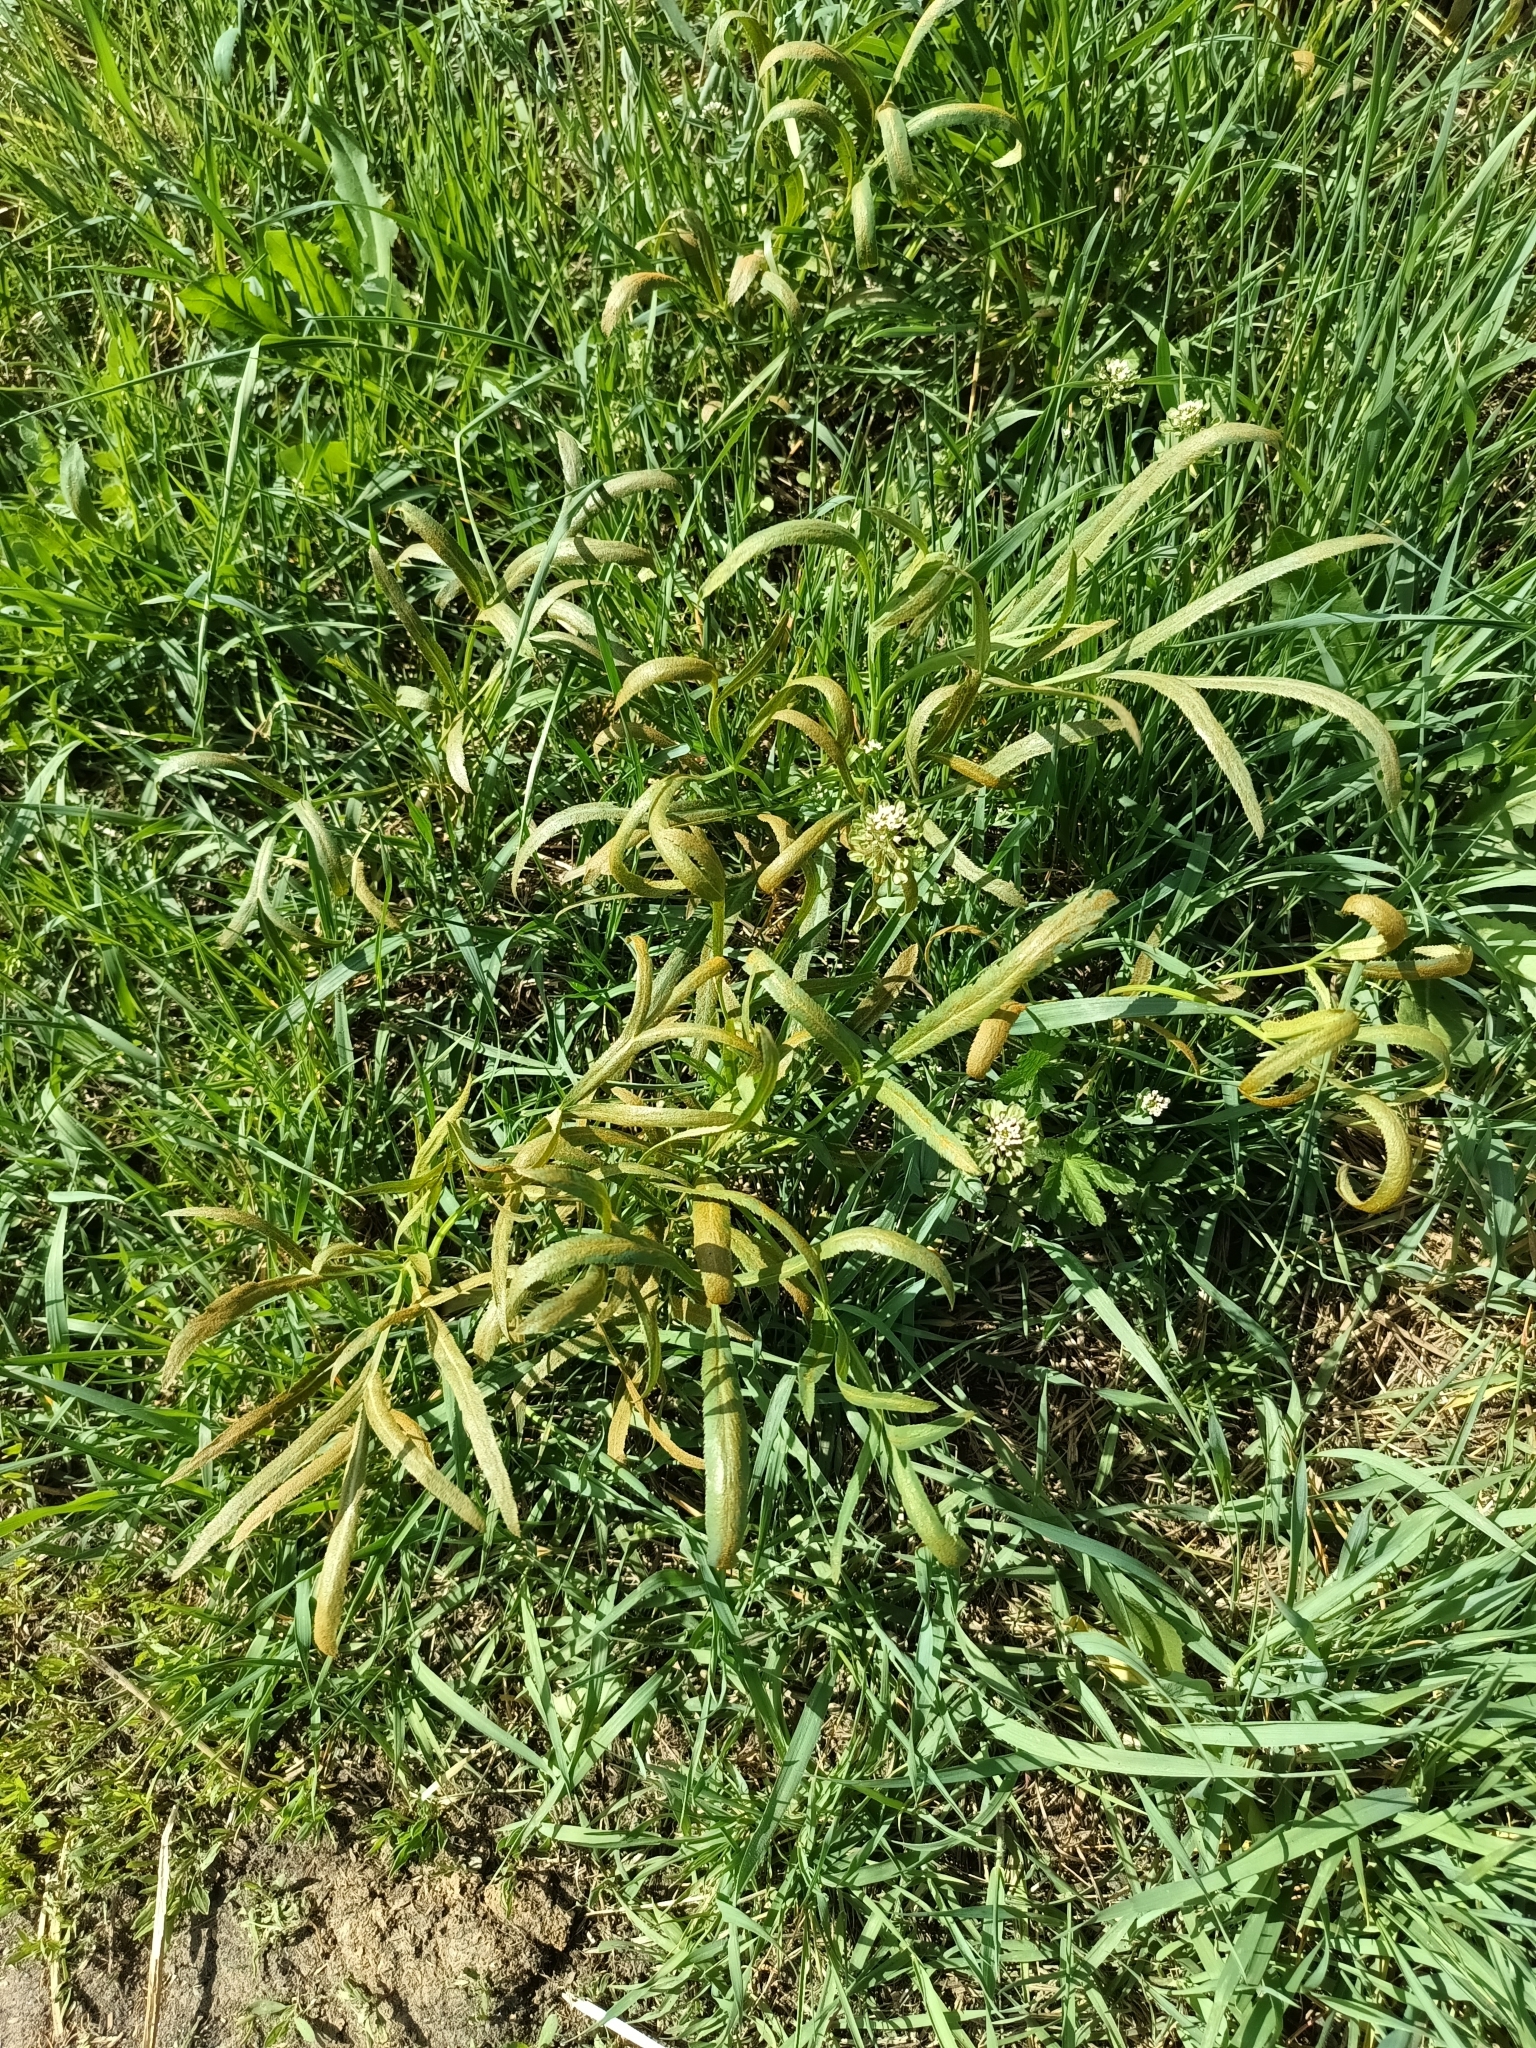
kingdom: Plantae
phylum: Tracheophyta
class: Magnoliopsida
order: Apiales
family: Apiaceae
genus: Falcaria
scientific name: Falcaria vulgaris
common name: Longleaf
